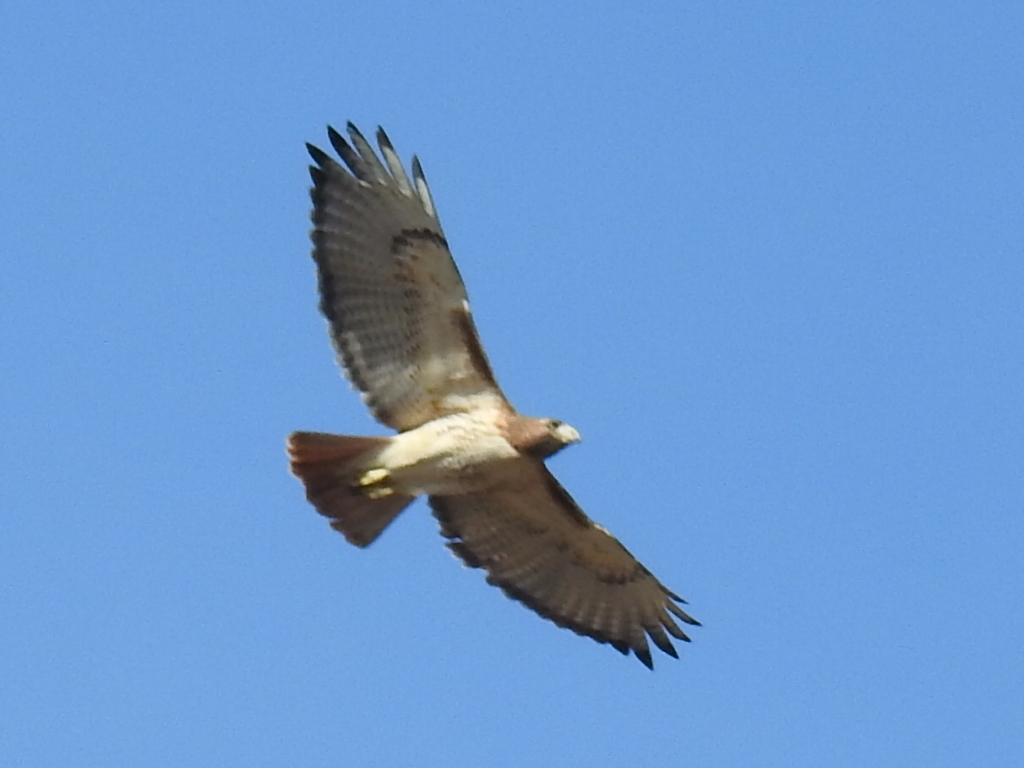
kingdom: Animalia
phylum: Chordata
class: Aves
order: Accipitriformes
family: Accipitridae
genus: Buteo
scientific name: Buteo jamaicensis
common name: Red-tailed hawk
